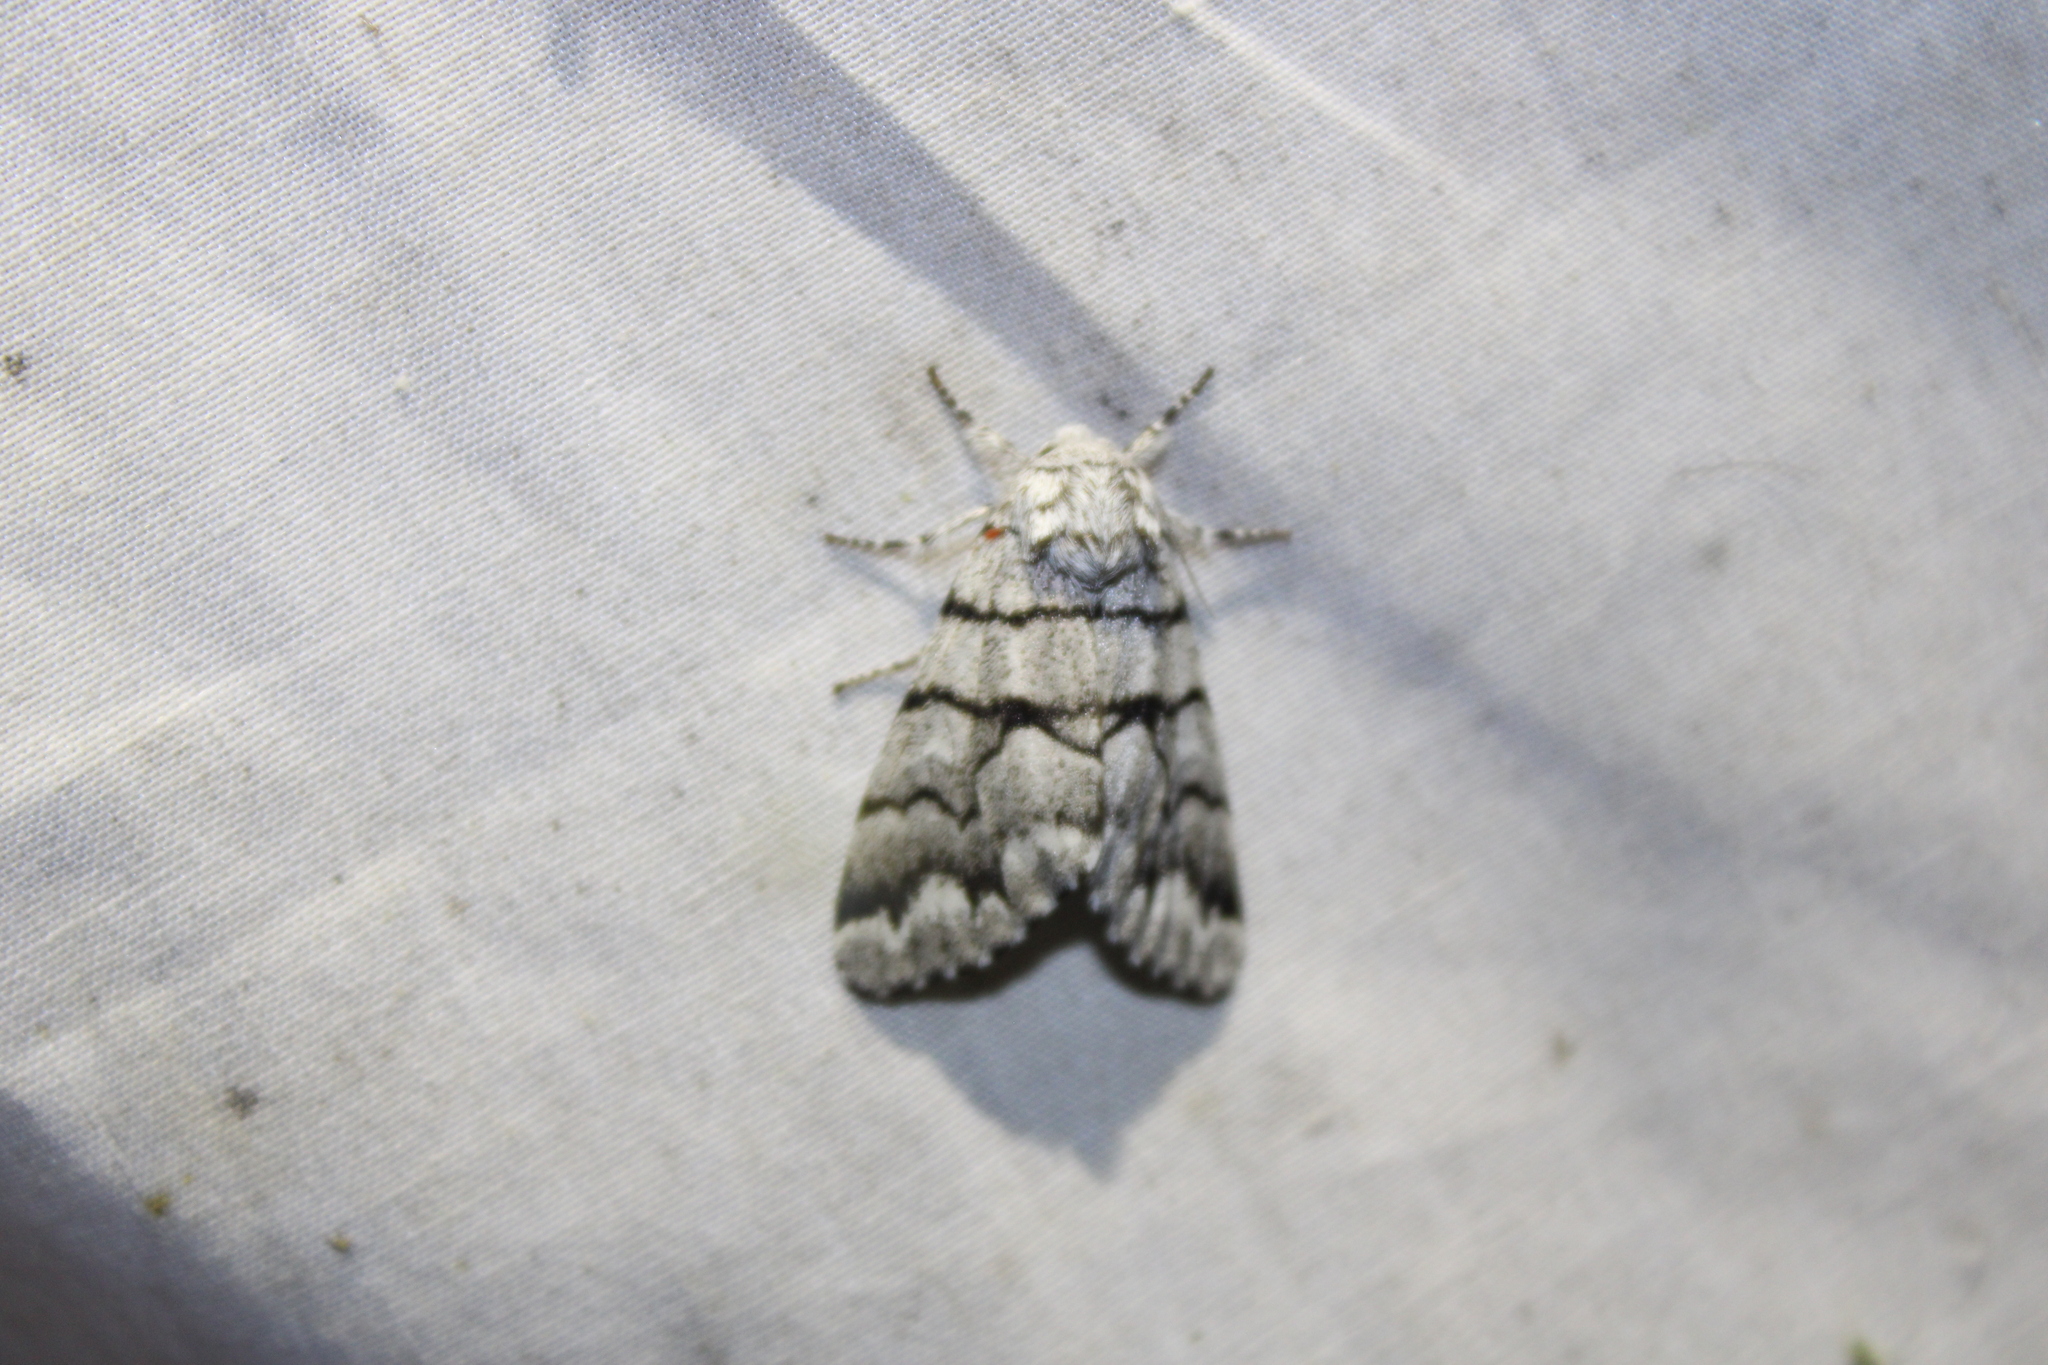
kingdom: Animalia
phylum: Arthropoda
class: Insecta
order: Lepidoptera
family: Noctuidae
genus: Panthea
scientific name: Panthea furcilla
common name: Eastern panthea moth
